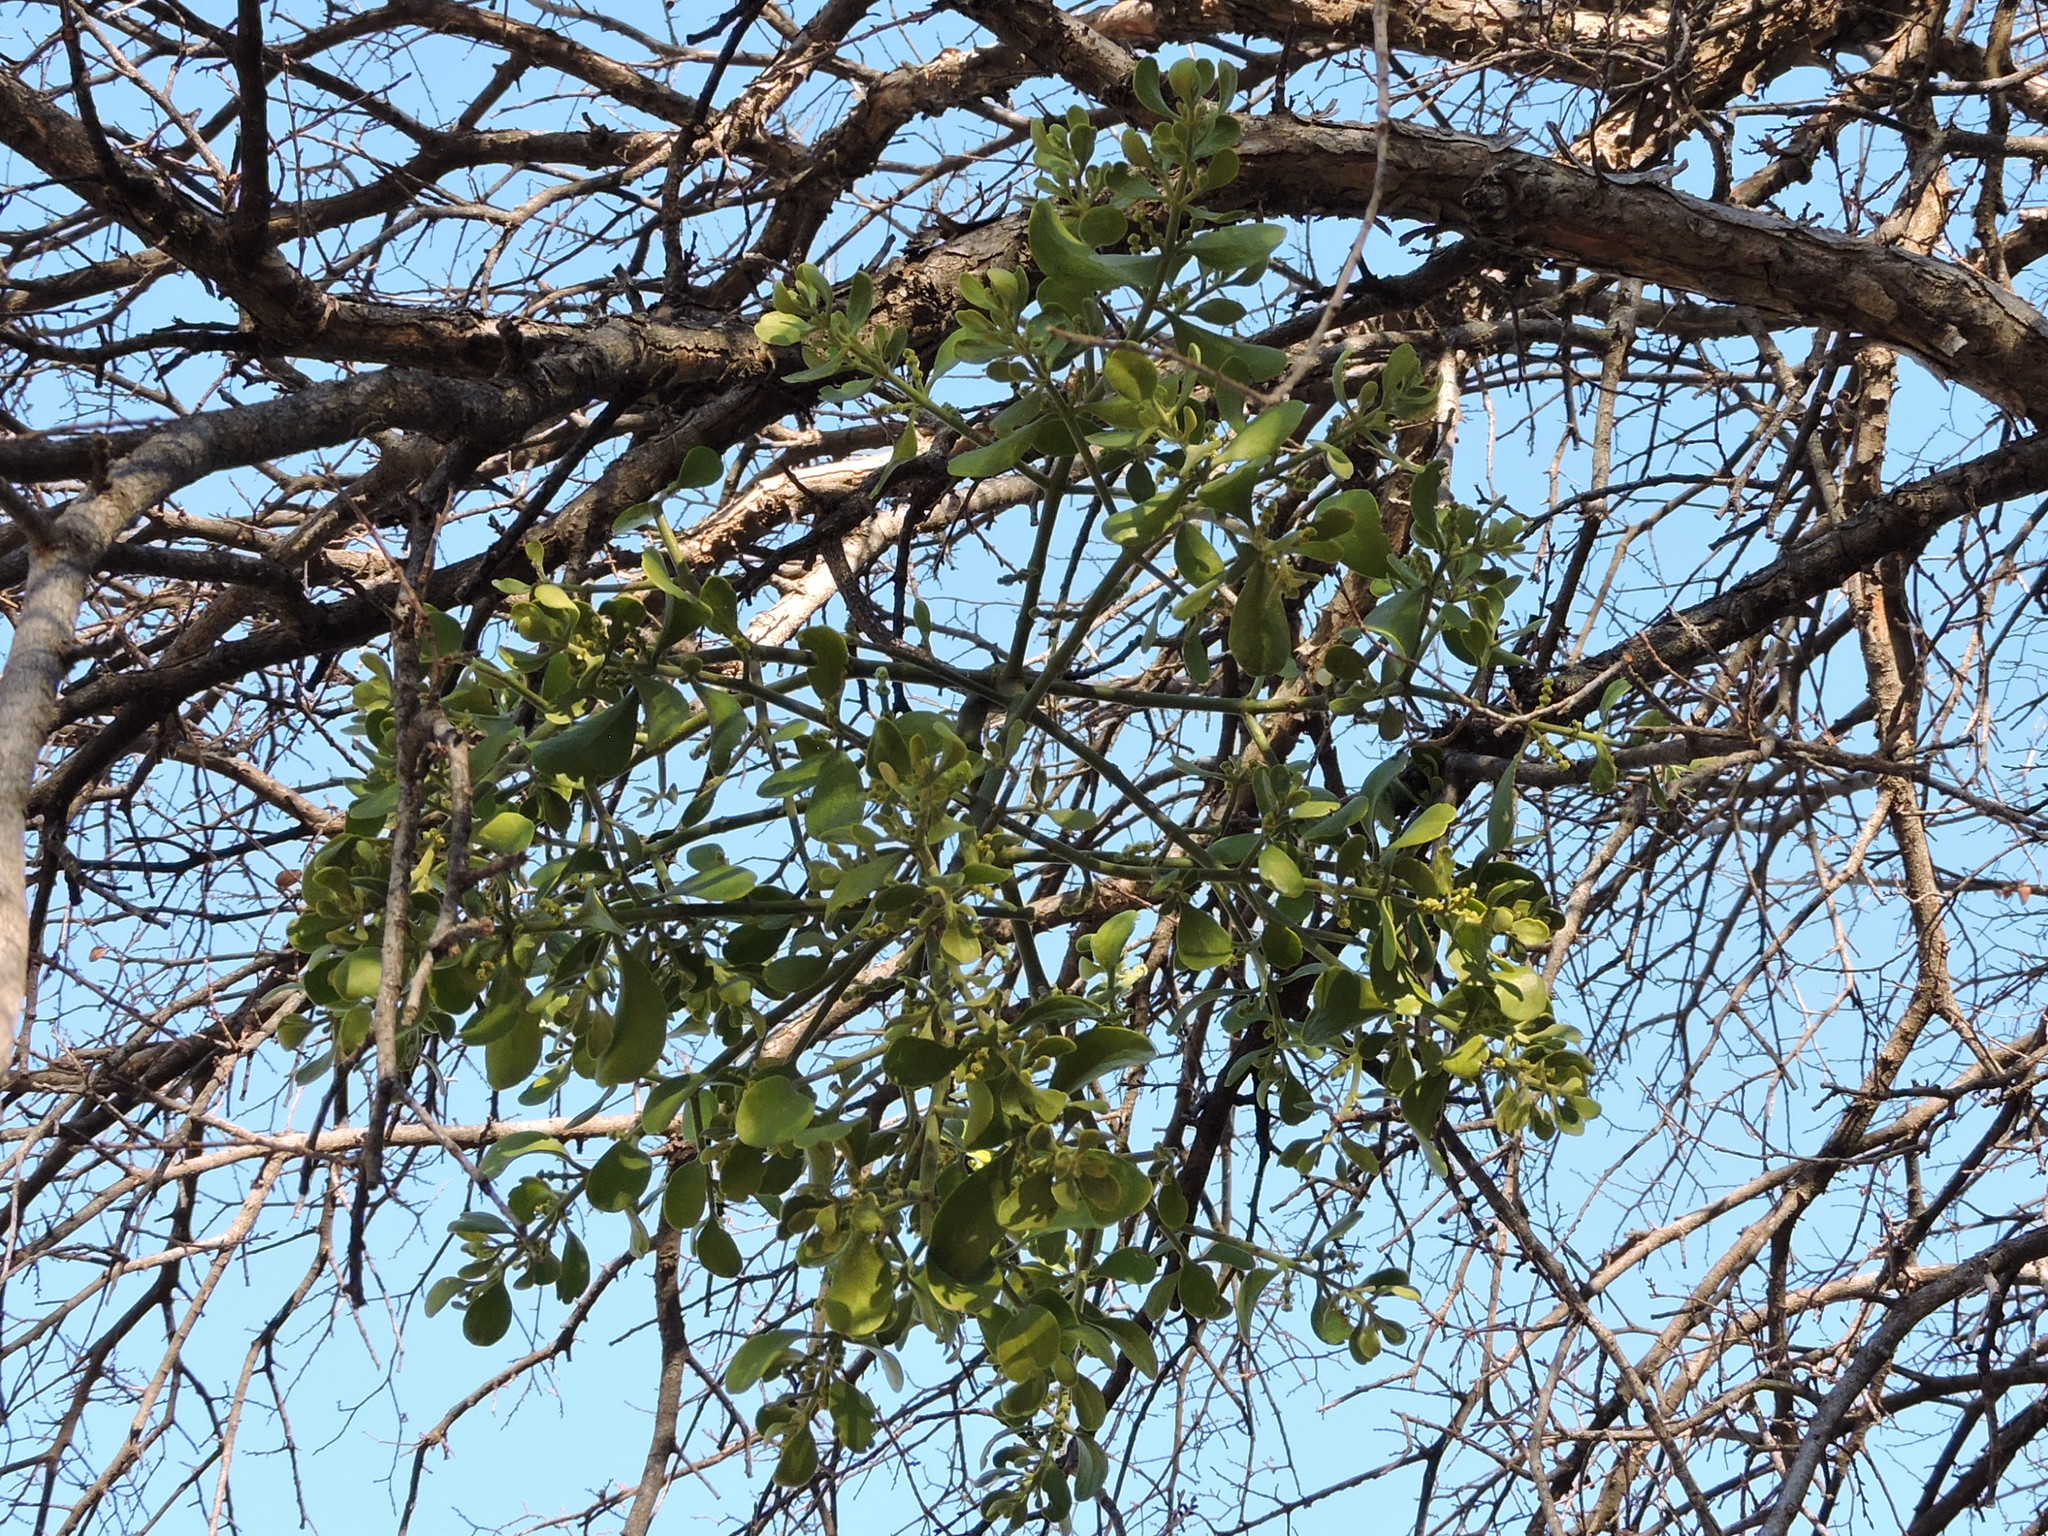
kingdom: Plantae
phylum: Tracheophyta
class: Magnoliopsida
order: Santalales
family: Viscaceae
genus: Phoradendron
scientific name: Phoradendron leucarpum
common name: Pacific mistletoe
